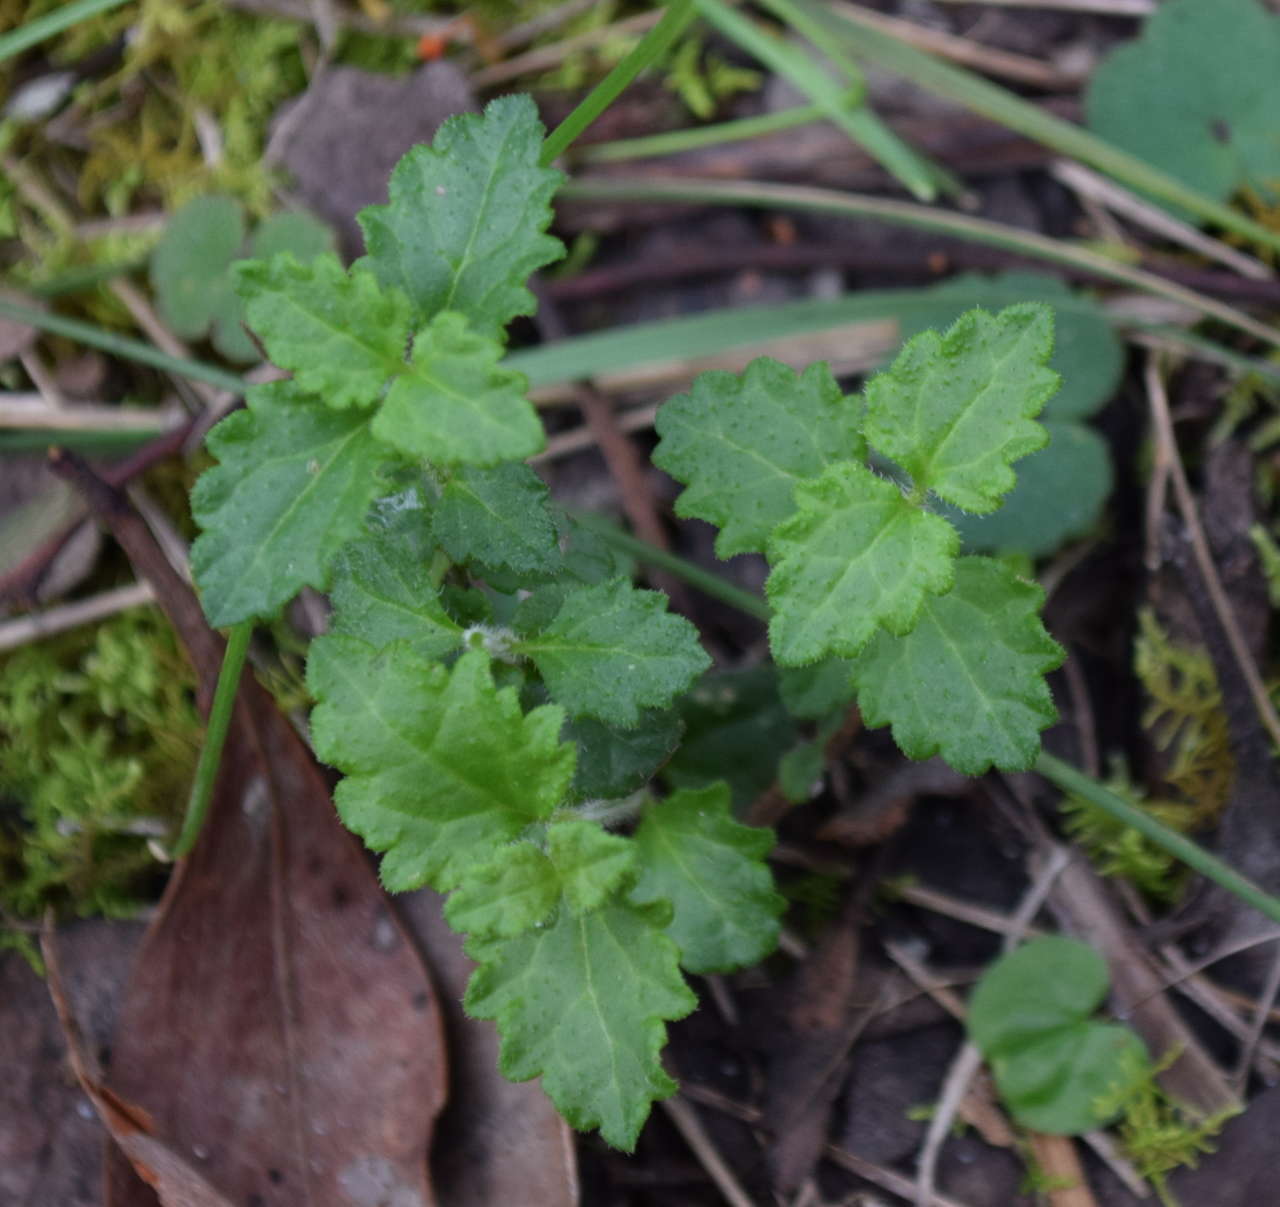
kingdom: Plantae
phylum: Tracheophyta
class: Magnoliopsida
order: Lamiales
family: Plantaginaceae
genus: Veronica
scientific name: Veronica calycina
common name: Cup speedwell
